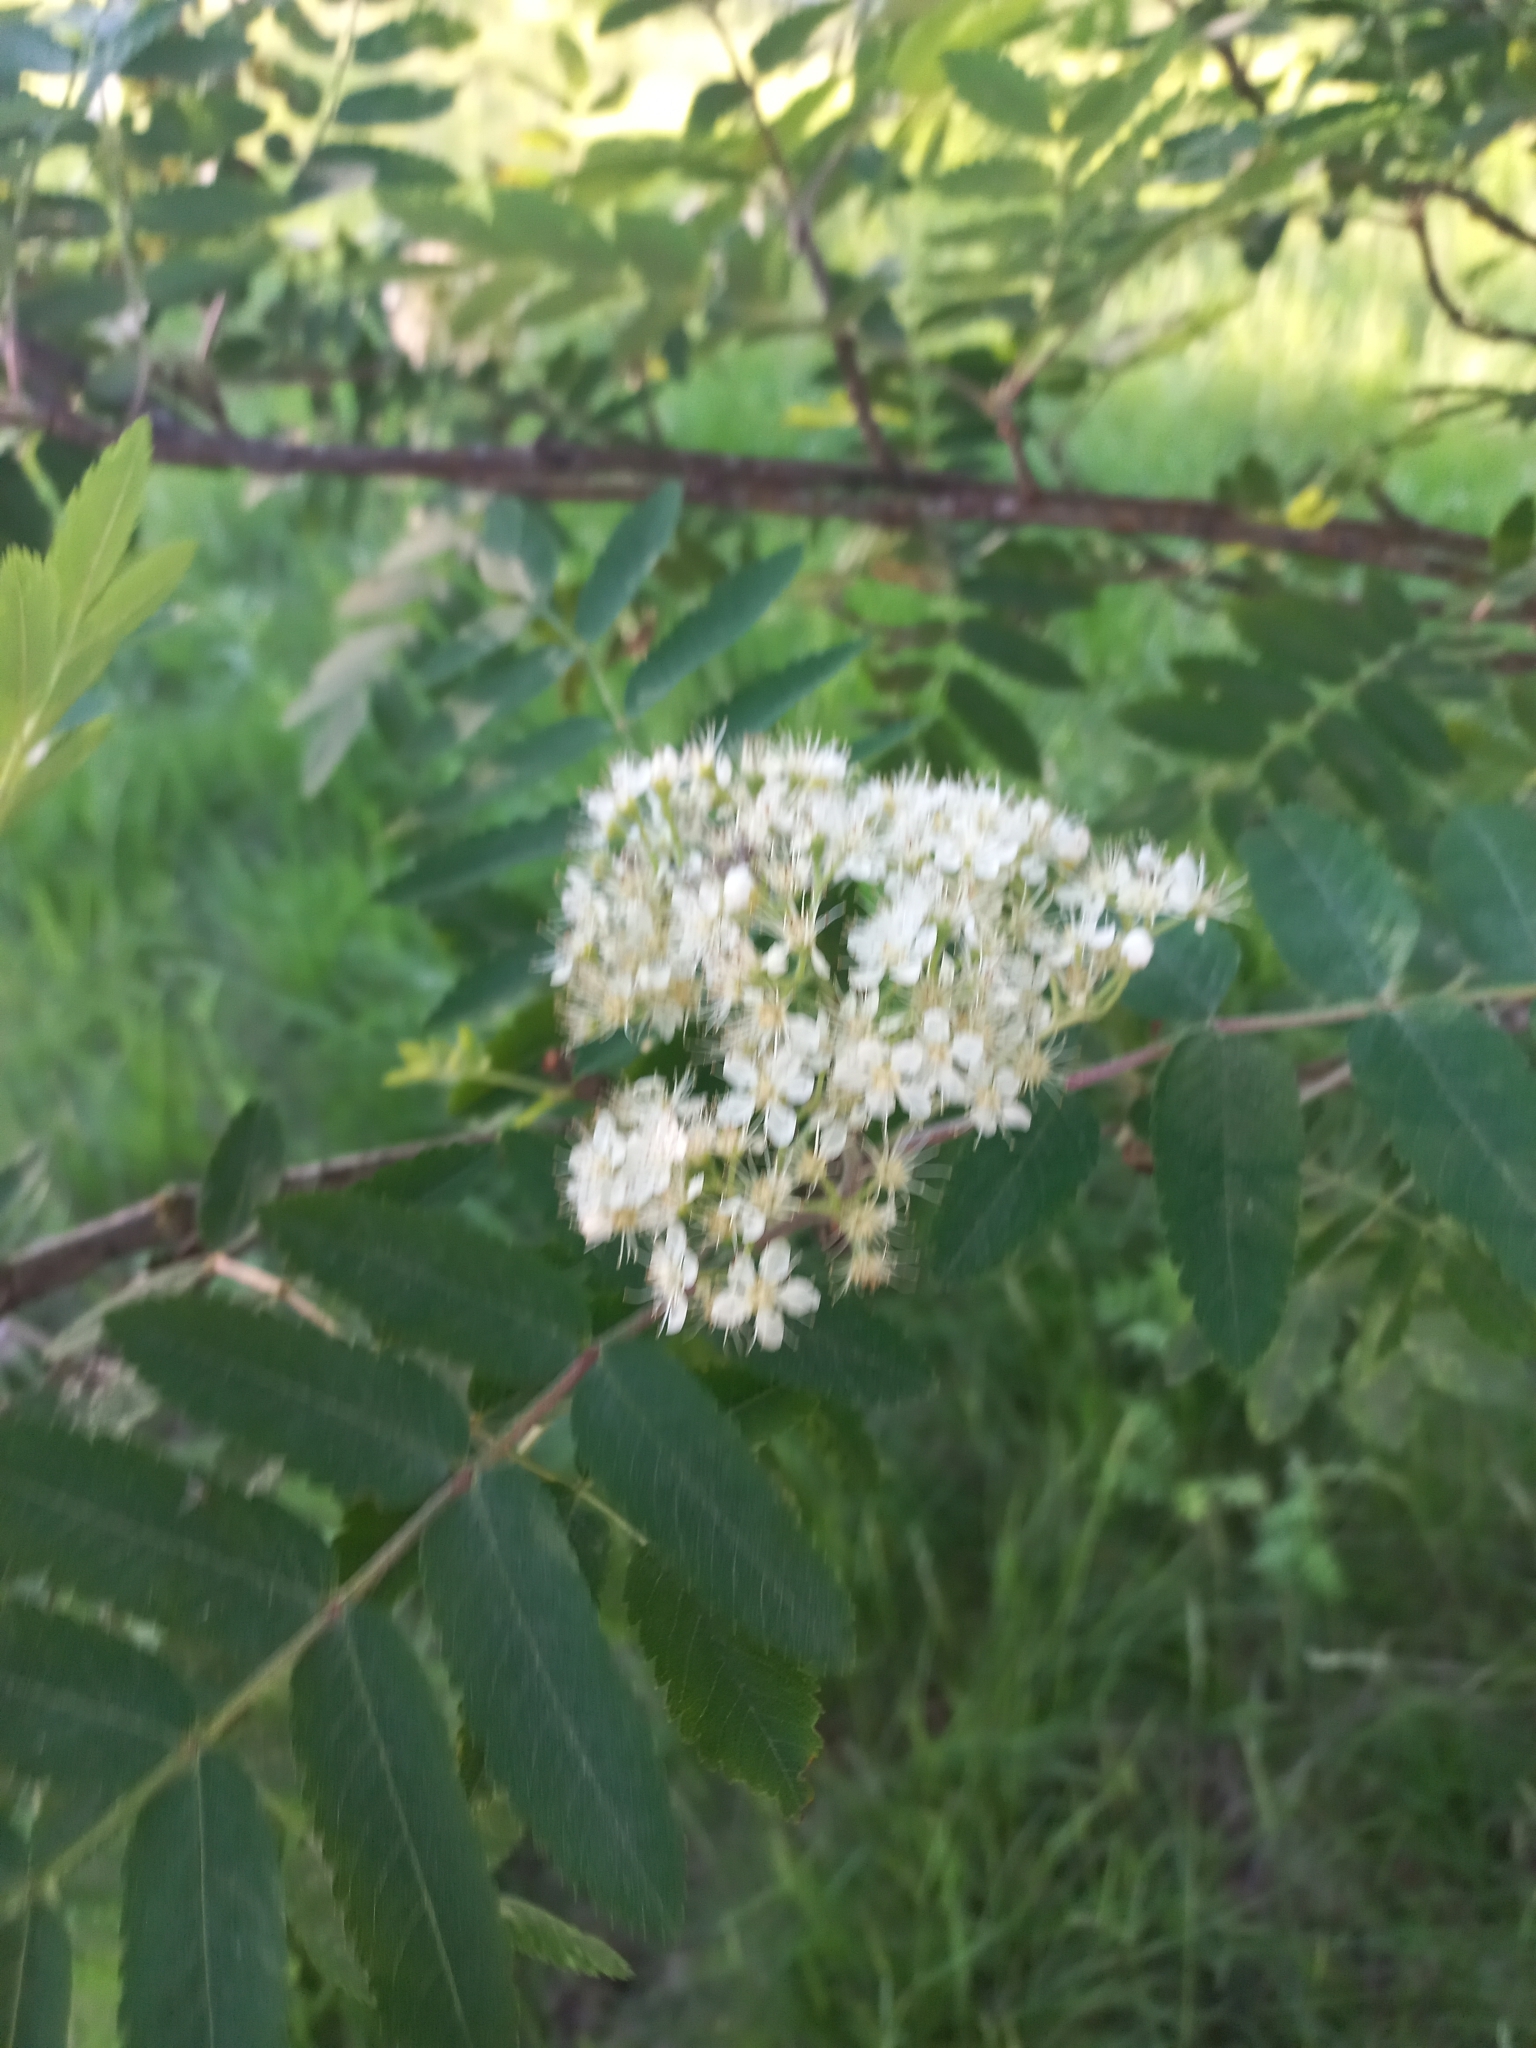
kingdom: Plantae
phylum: Tracheophyta
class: Magnoliopsida
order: Rosales
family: Rosaceae
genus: Sorbus
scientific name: Sorbus aucuparia
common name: Rowan
